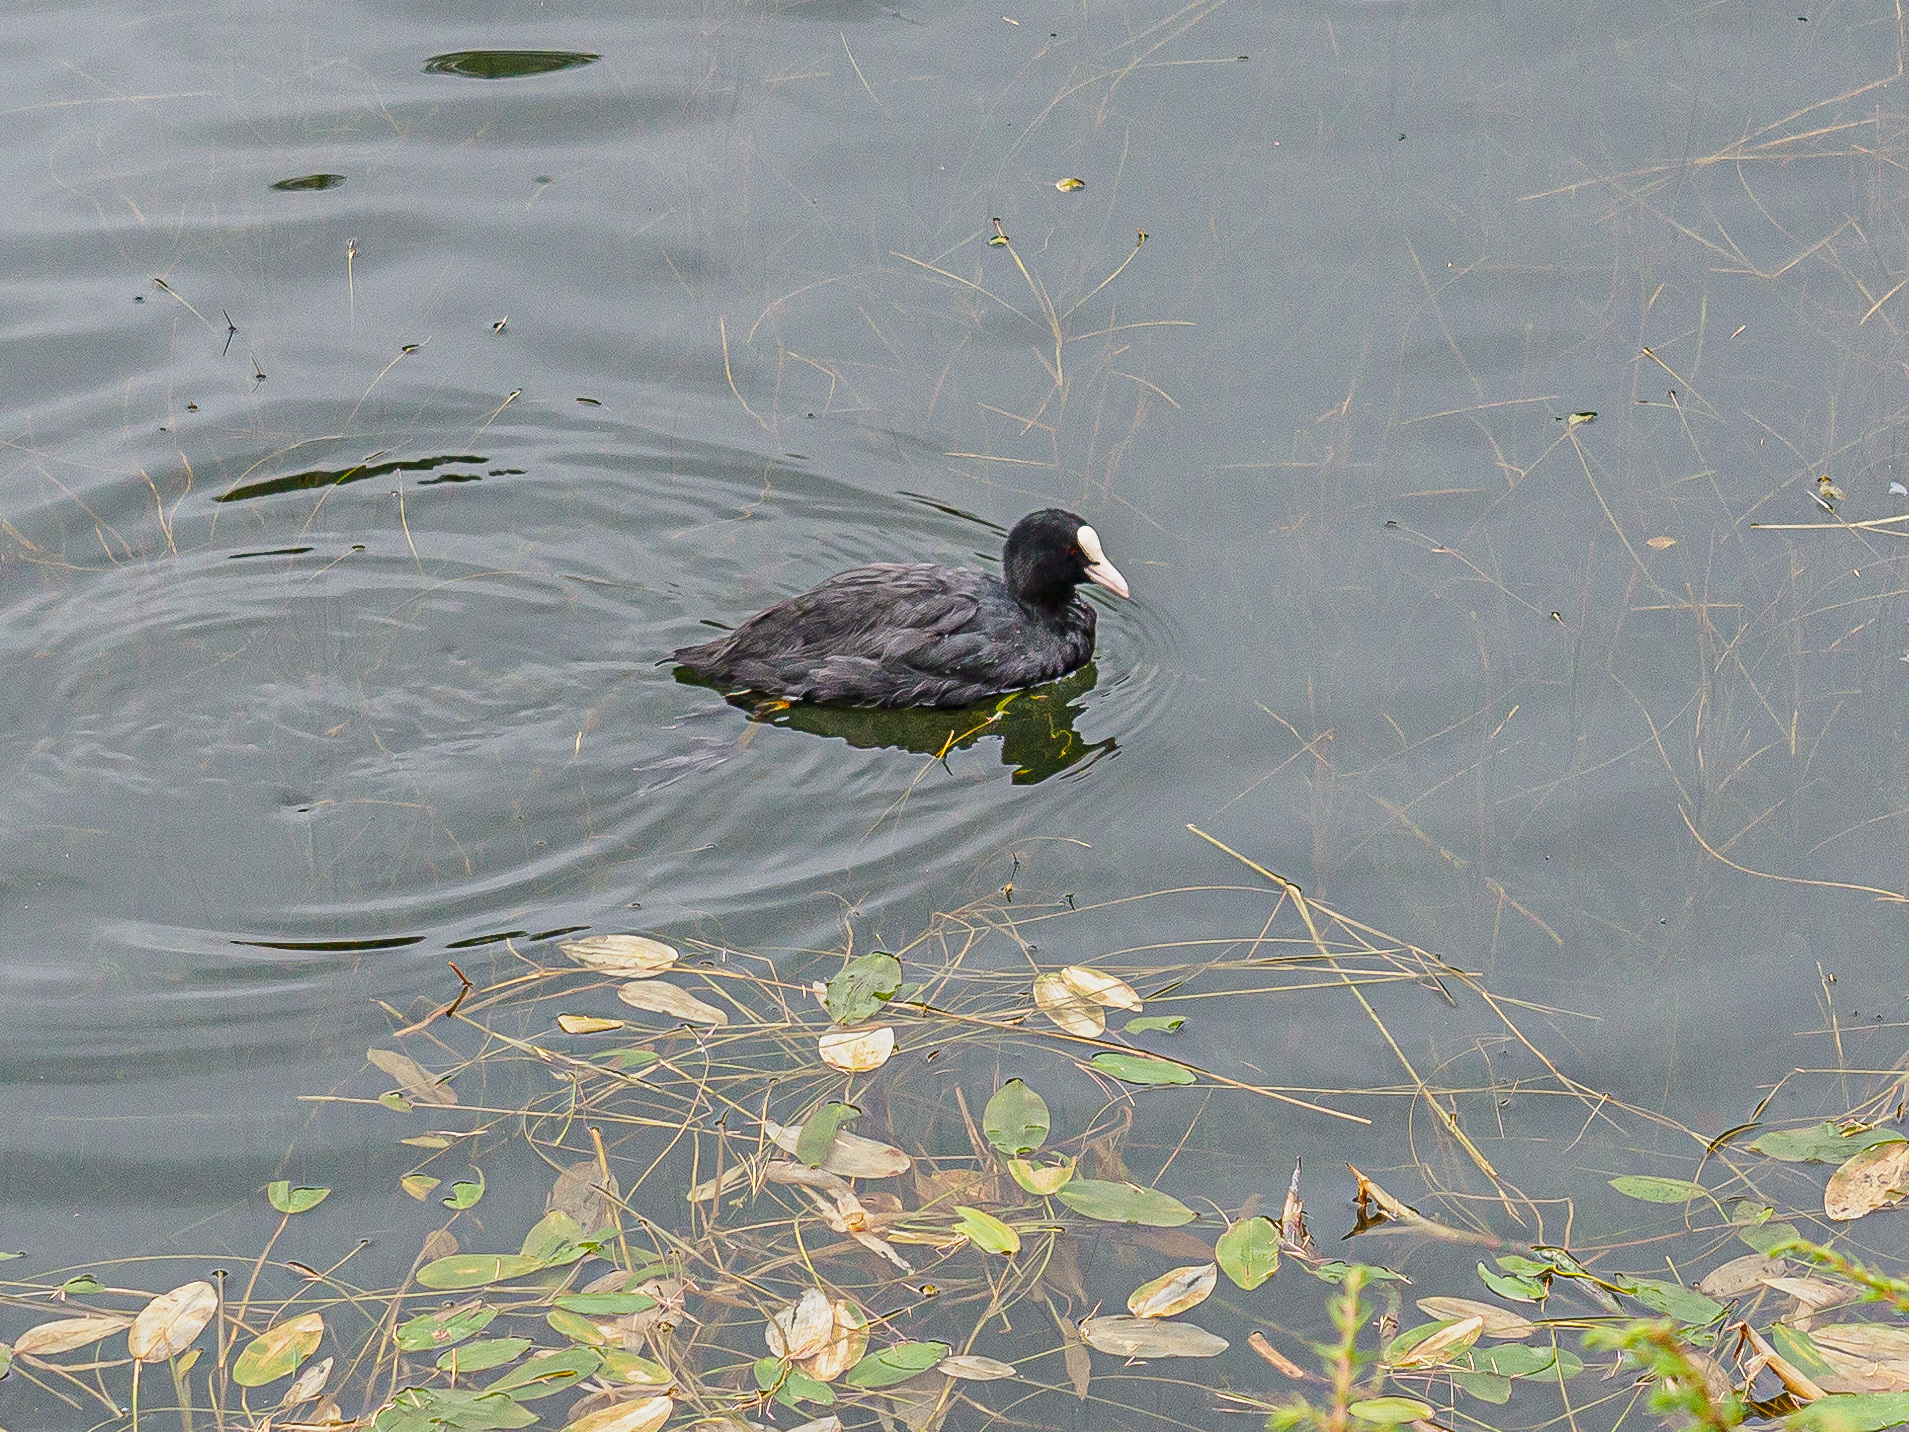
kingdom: Animalia
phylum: Chordata
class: Aves
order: Gruiformes
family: Rallidae
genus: Fulica
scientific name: Fulica atra
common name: Eurasian coot
